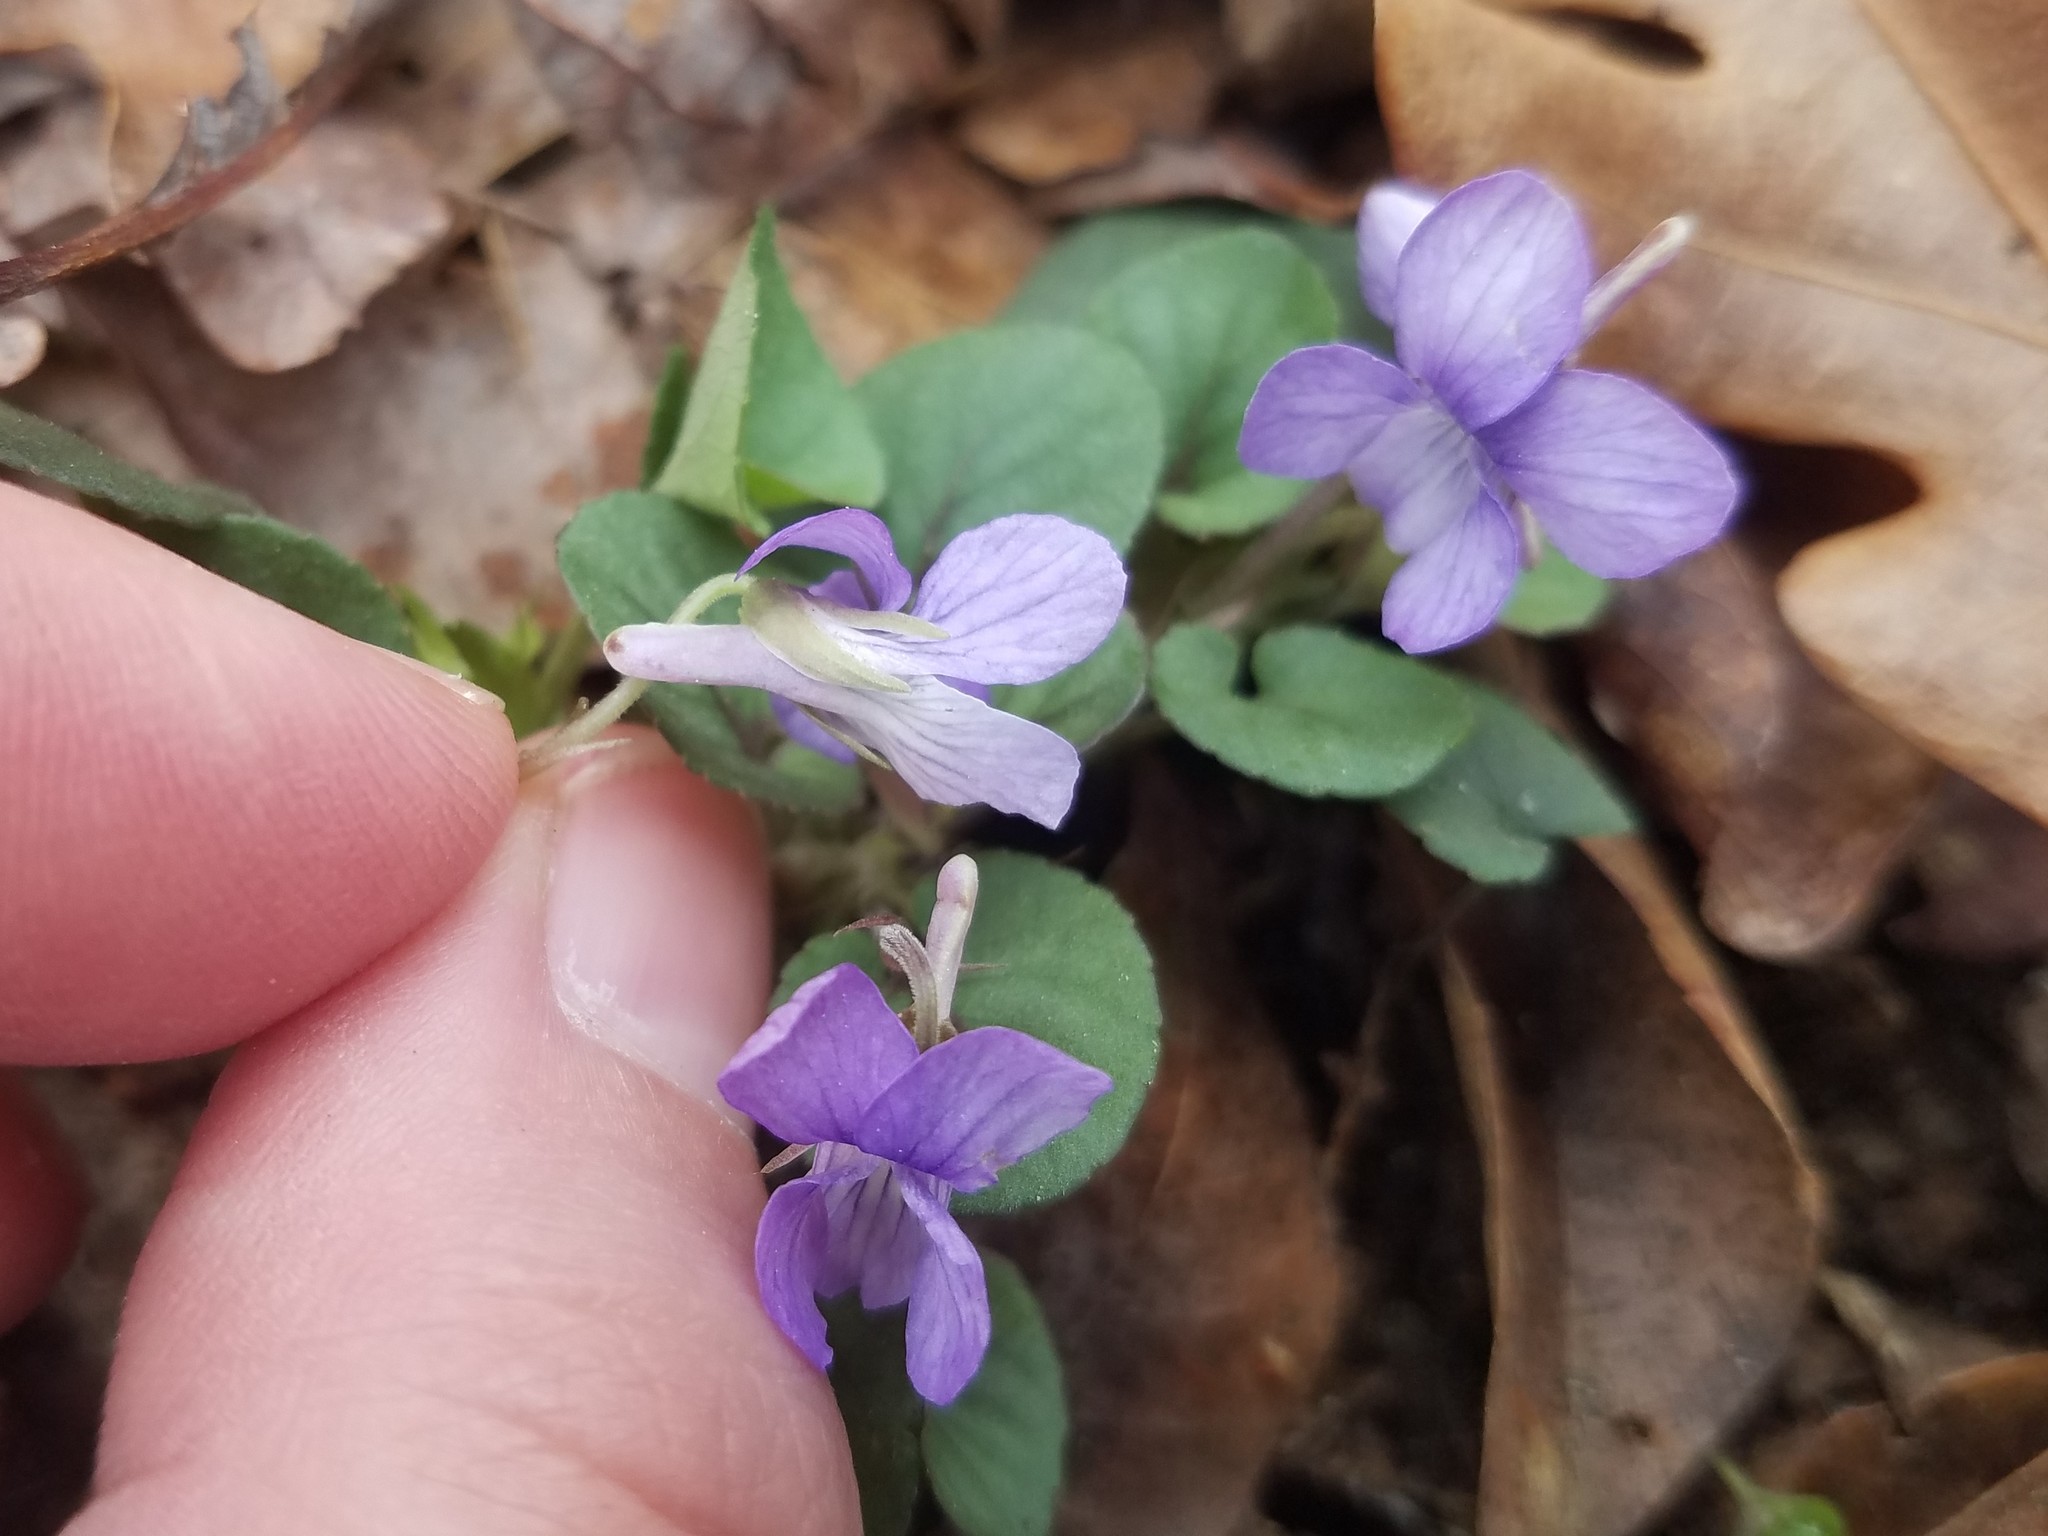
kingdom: Plantae
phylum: Tracheophyta
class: Magnoliopsida
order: Malpighiales
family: Violaceae
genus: Viola
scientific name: Viola walteri
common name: Prostrate southern violet
